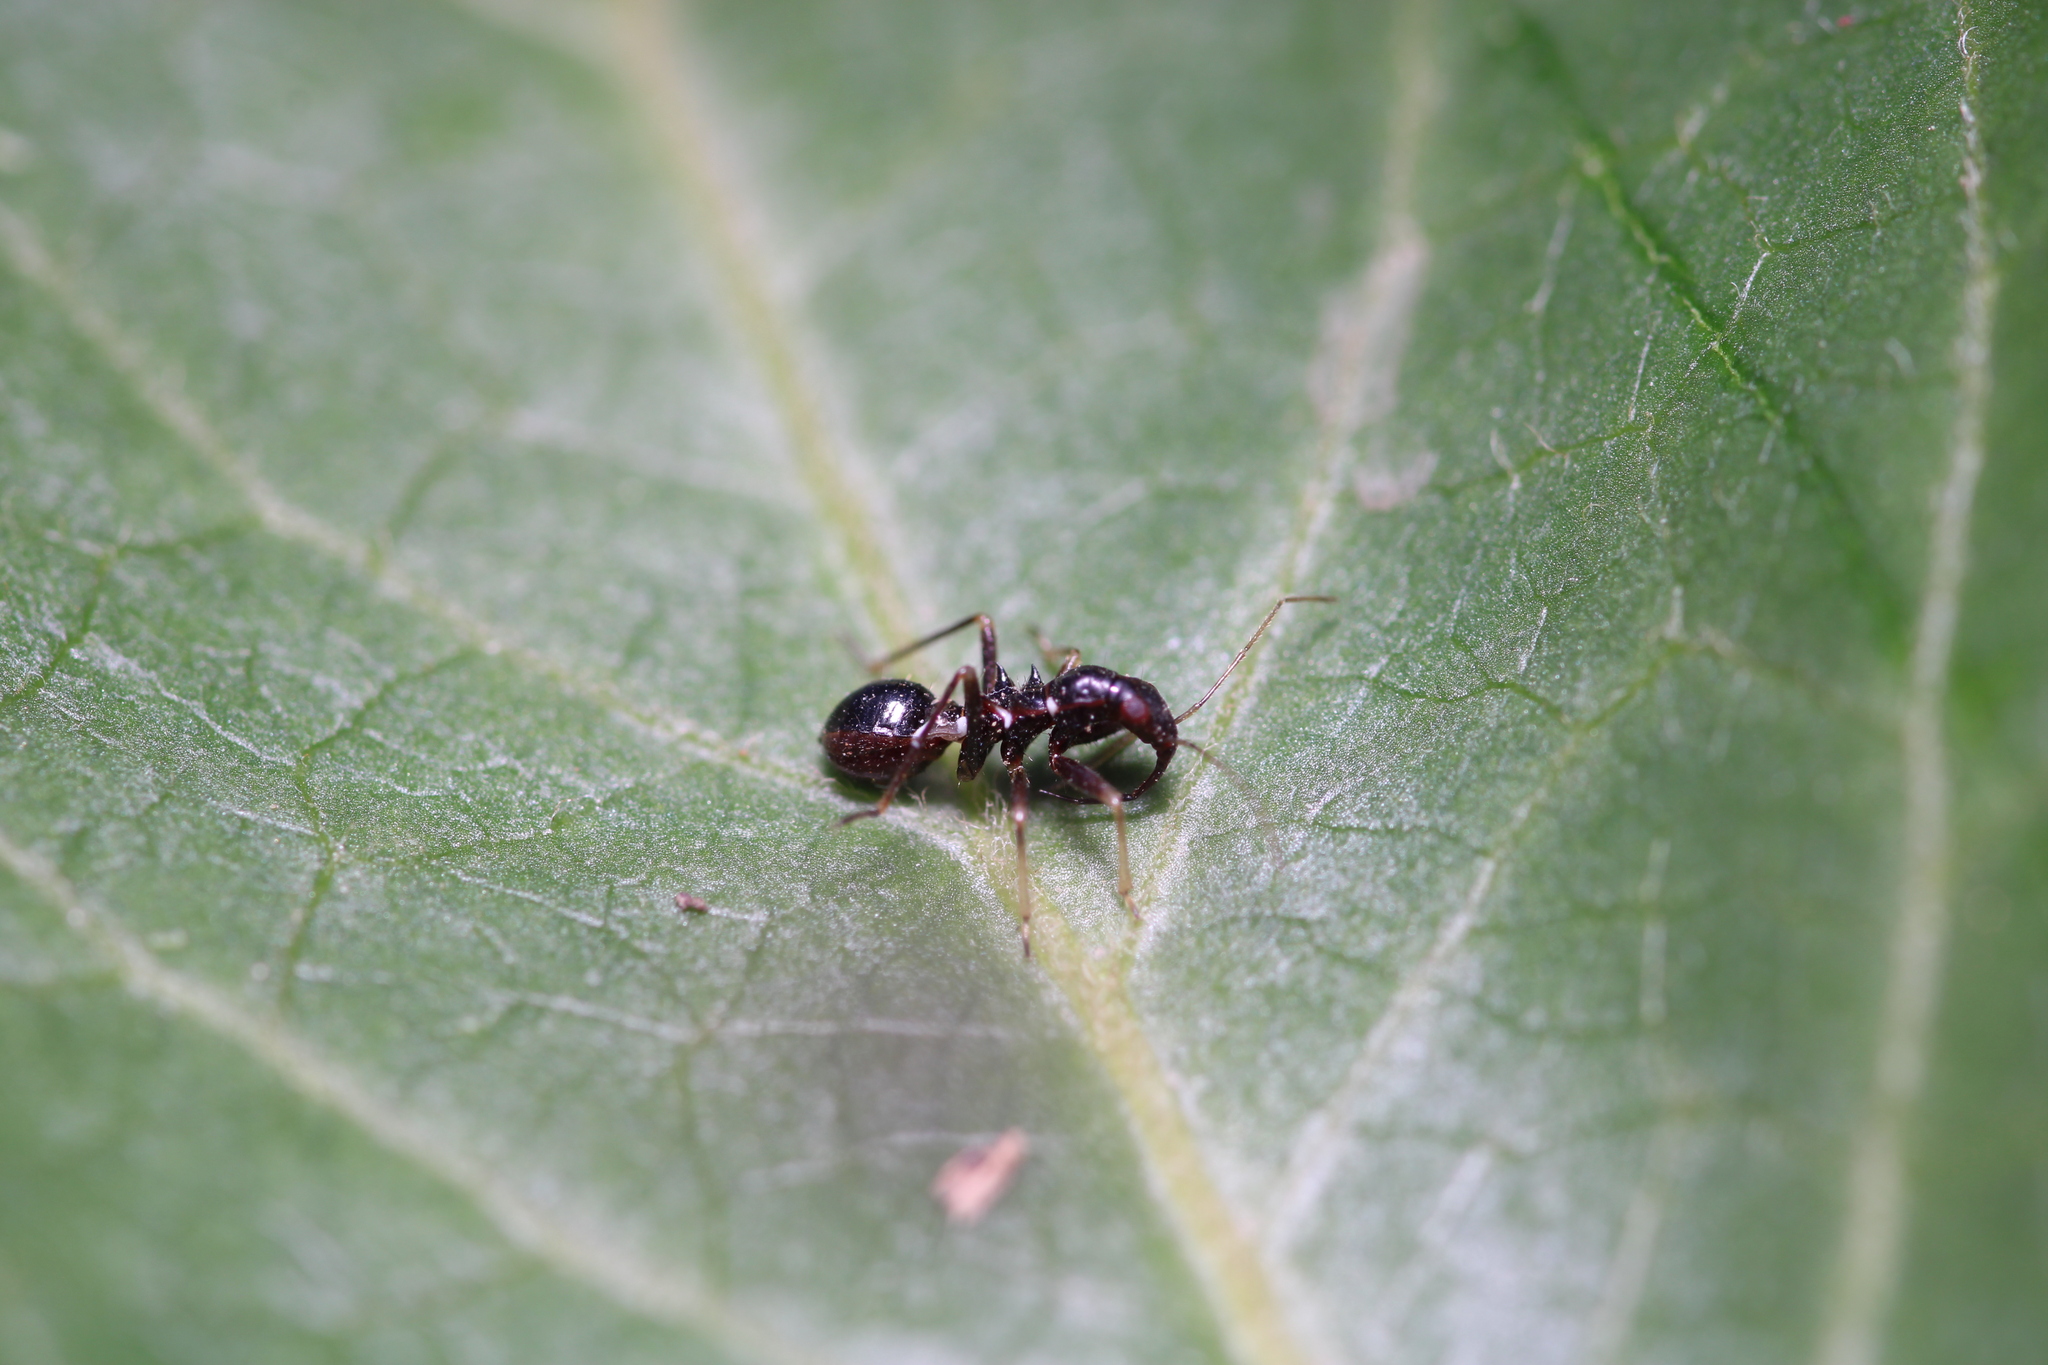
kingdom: Animalia
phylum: Arthropoda
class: Insecta
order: Hemiptera
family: Nabidae
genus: Himacerus
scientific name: Himacerus mirmicoides
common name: Ant damsel bug
